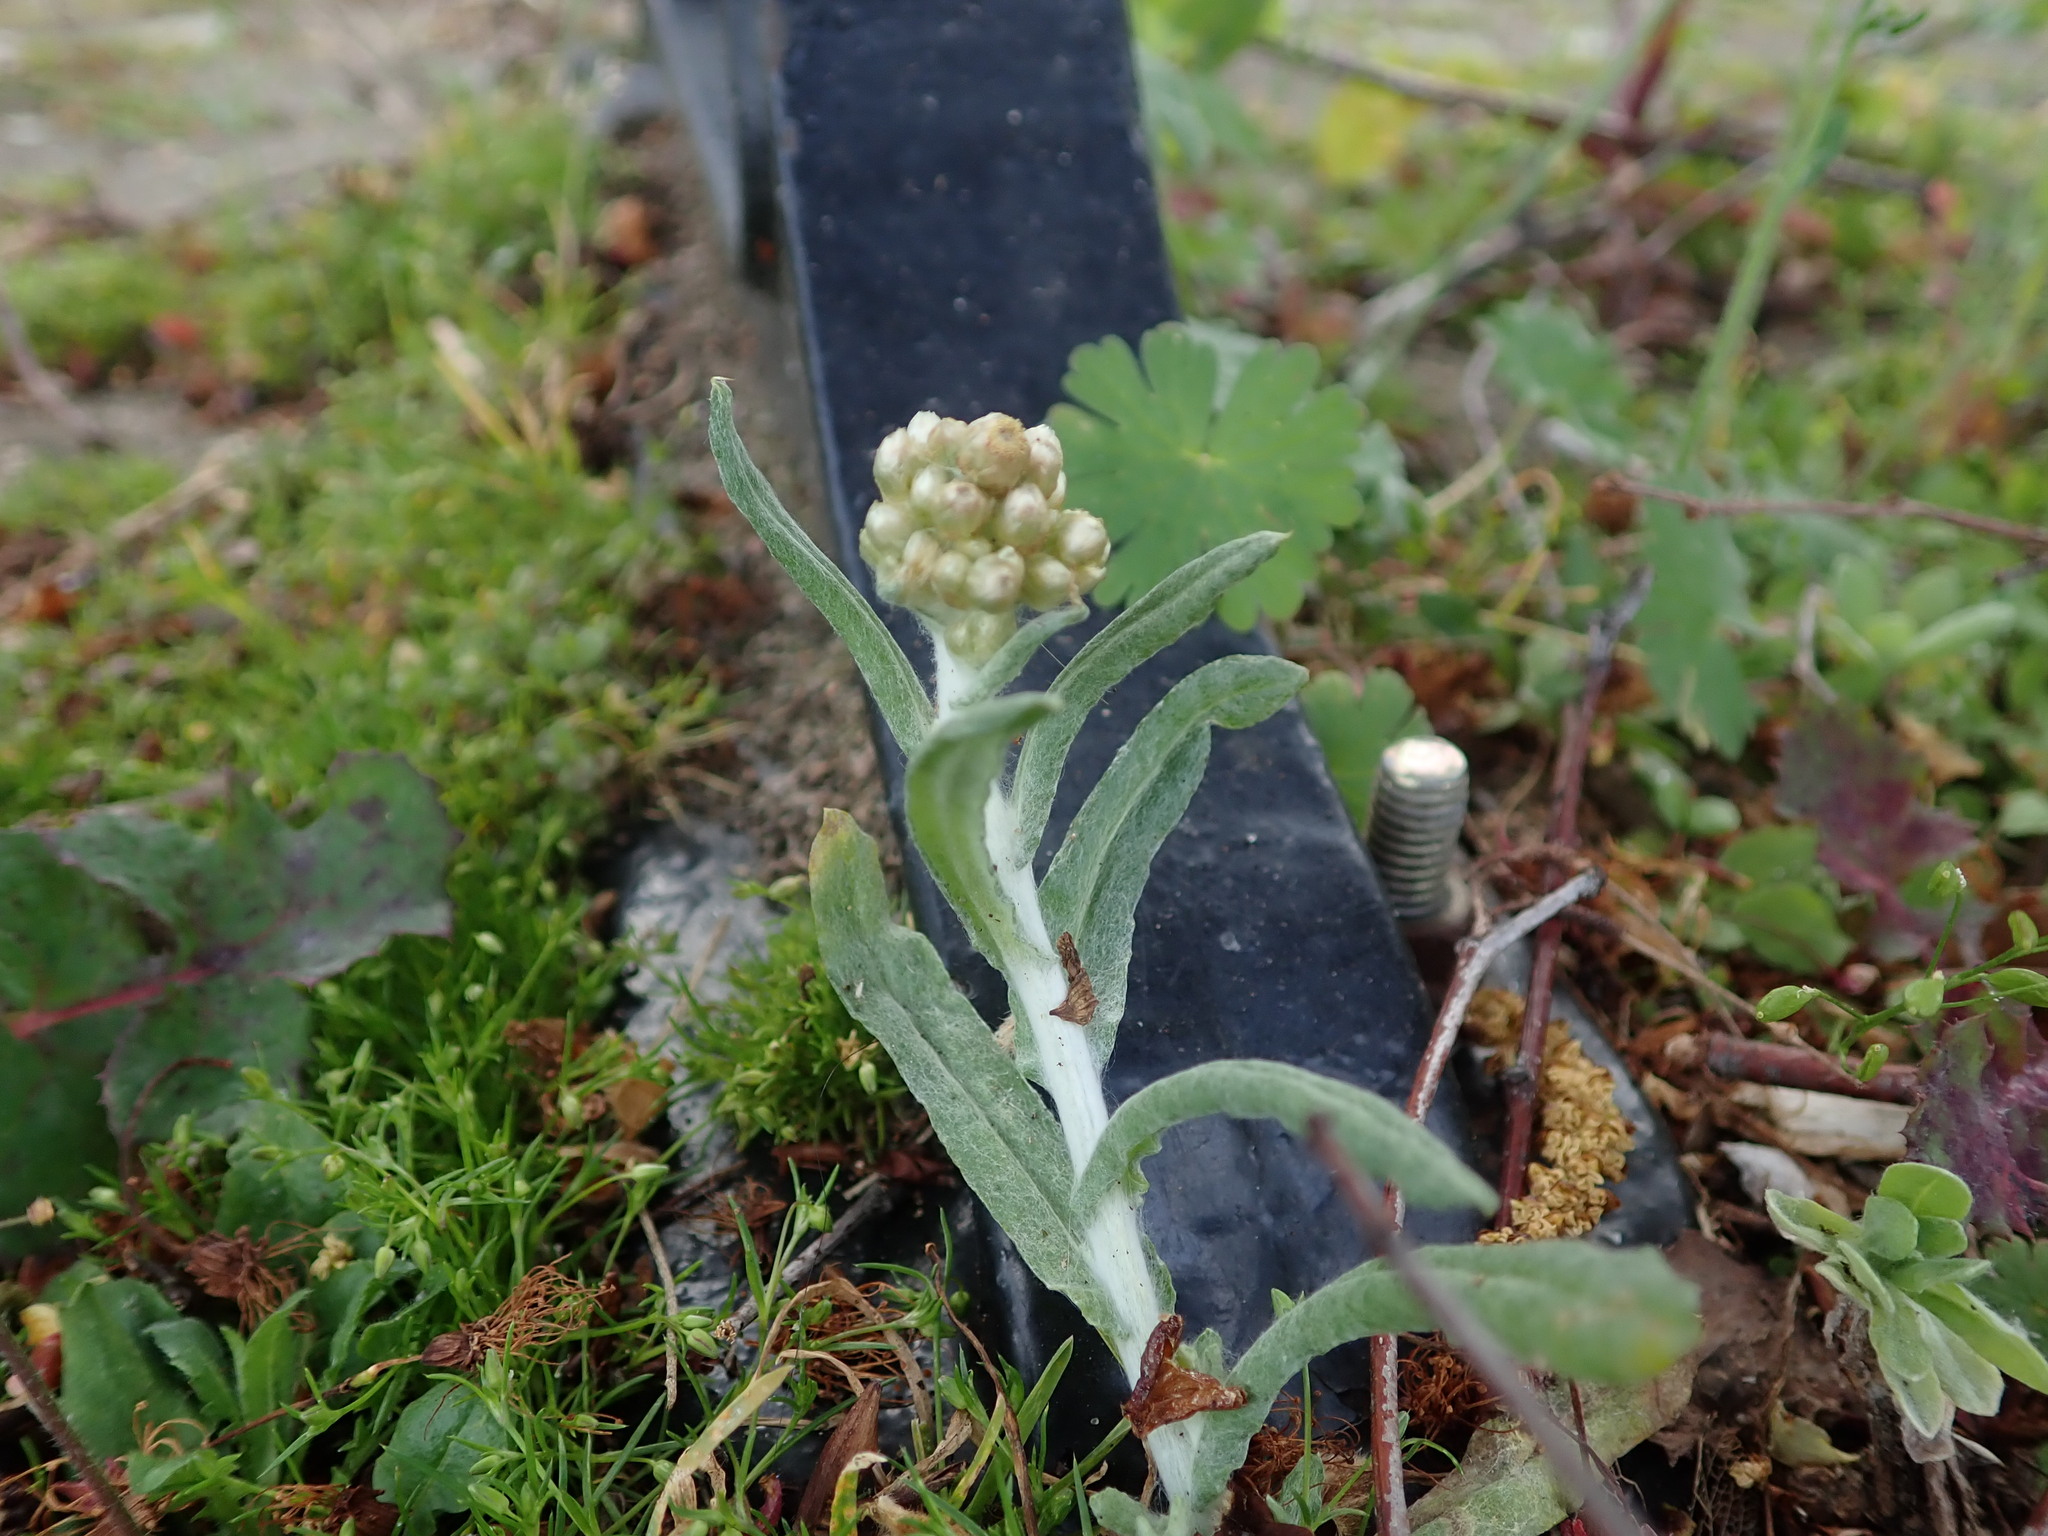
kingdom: Plantae
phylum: Tracheophyta
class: Magnoliopsida
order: Asterales
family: Asteraceae
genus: Helichrysum
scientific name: Helichrysum luteoalbum
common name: Daisy
